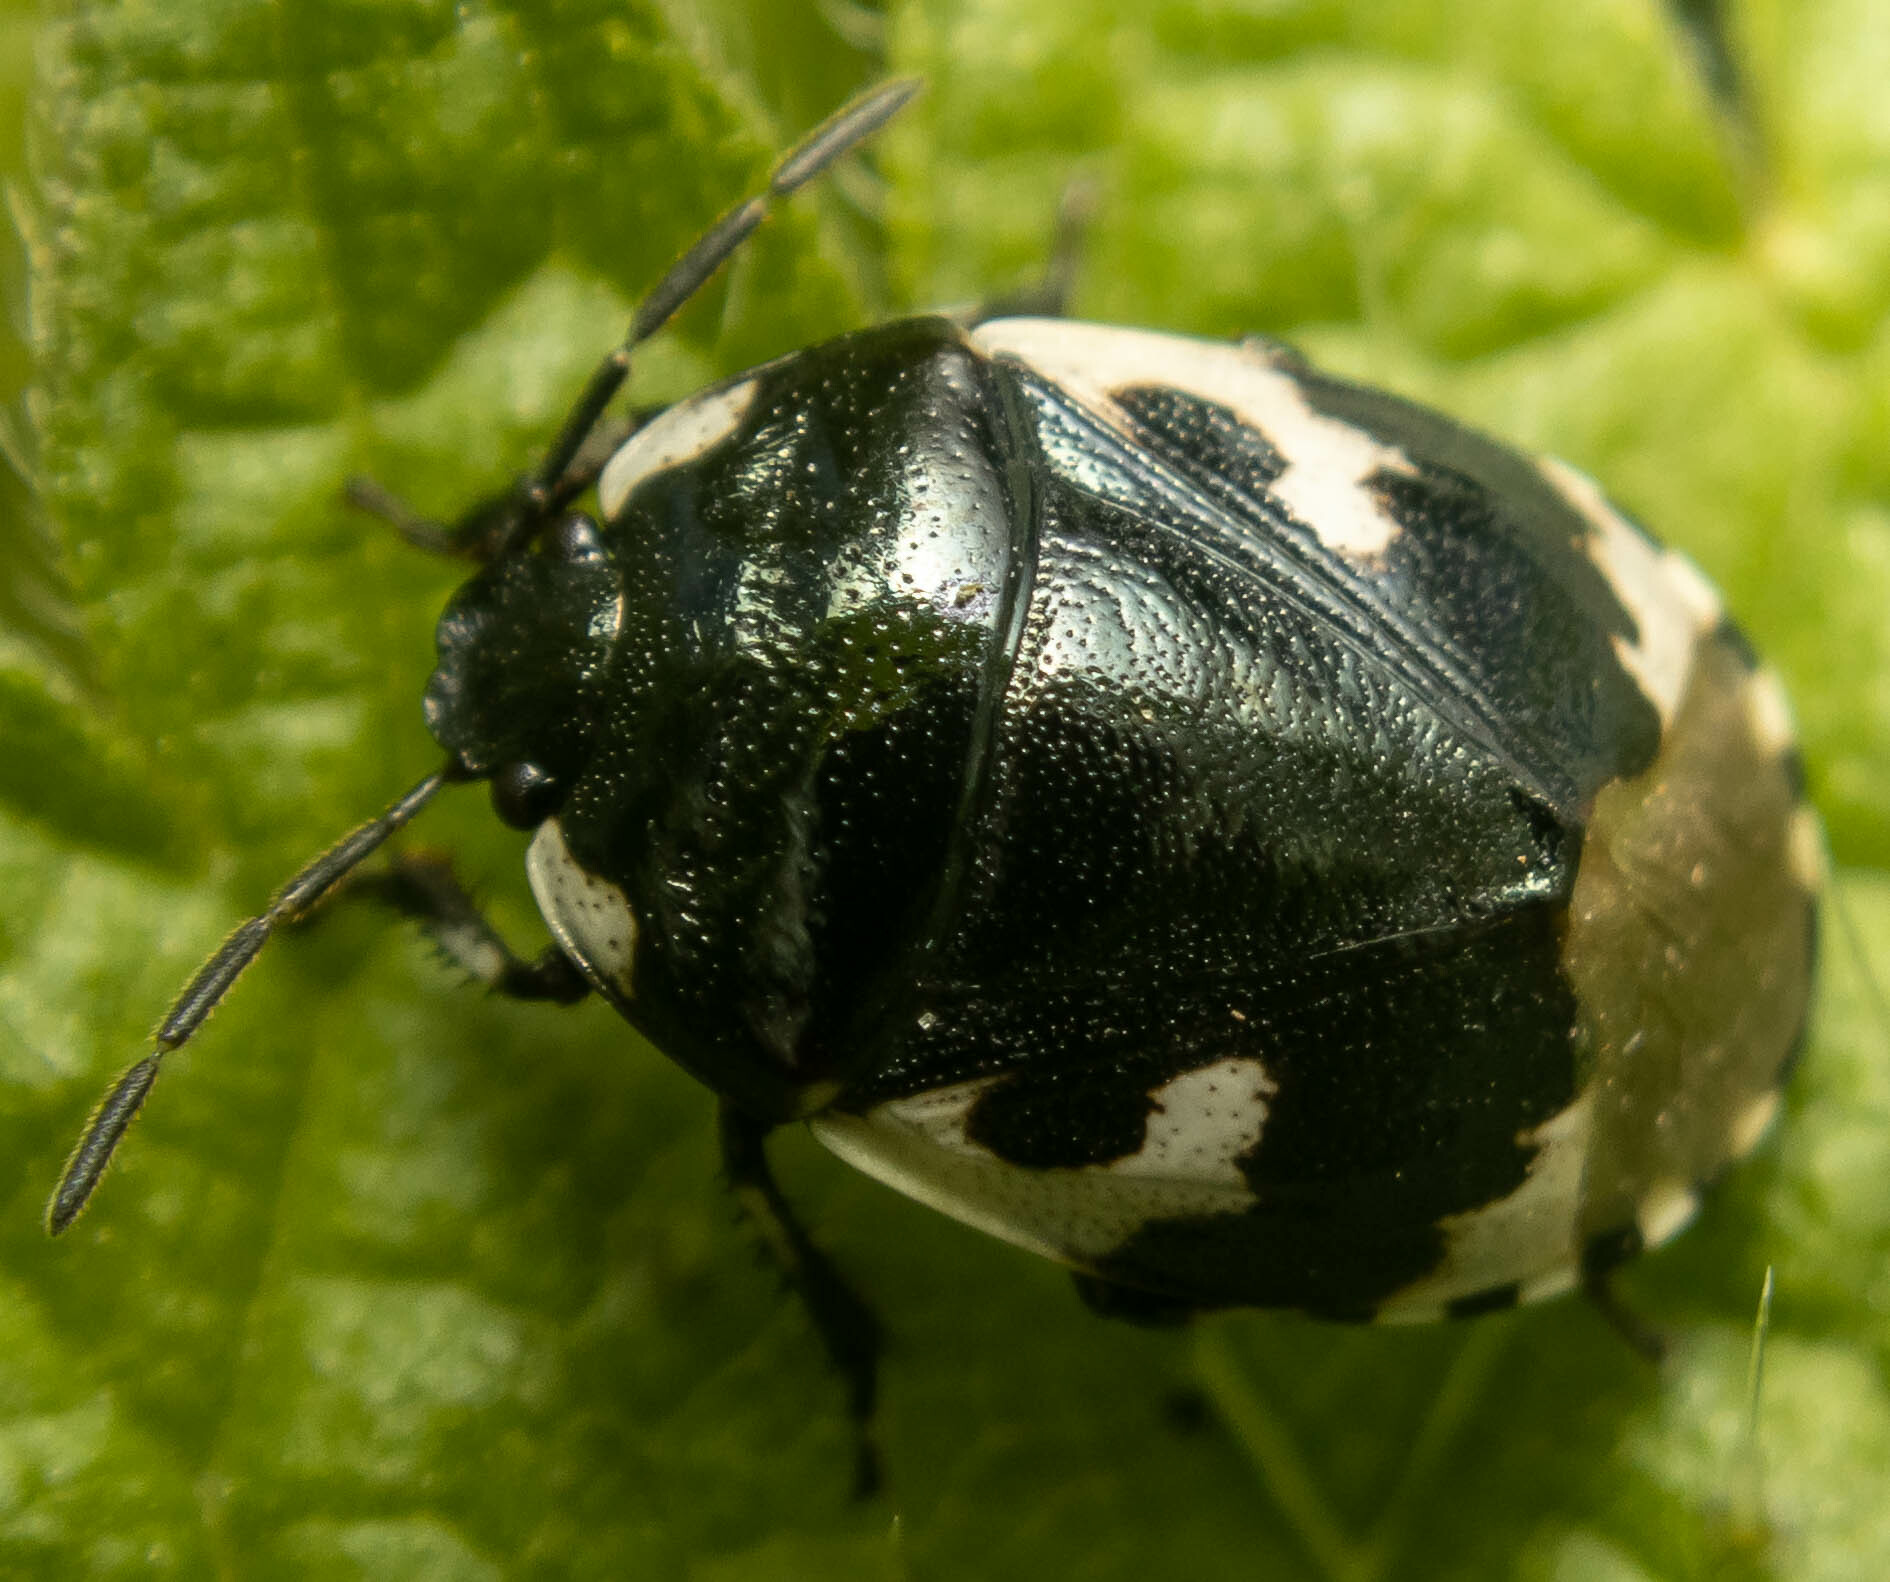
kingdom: Animalia
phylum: Arthropoda
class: Insecta
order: Hemiptera
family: Cydnidae
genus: Tritomegas
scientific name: Tritomegas bicolor
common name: Pied shieldbug
